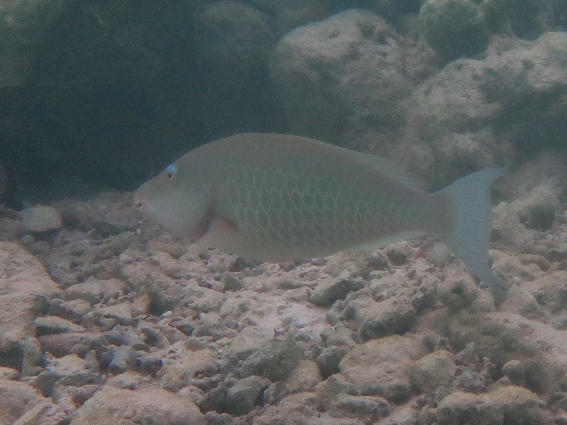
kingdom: Animalia
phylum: Chordata
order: Perciformes
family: Scaridae
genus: Hipposcarus
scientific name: Hipposcarus harid
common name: Candelamoa parrotfish
